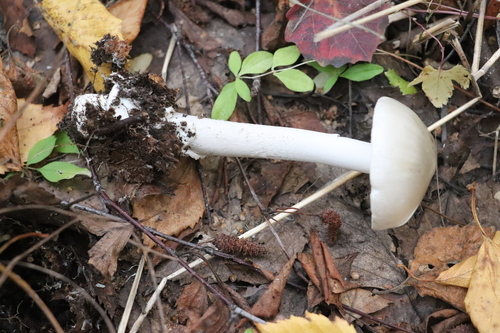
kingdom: Fungi
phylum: Basidiomycota
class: Agaricomycetes
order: Agaricales
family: Amanitaceae
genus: Amanita
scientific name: Amanita vaginata
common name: Grisette
